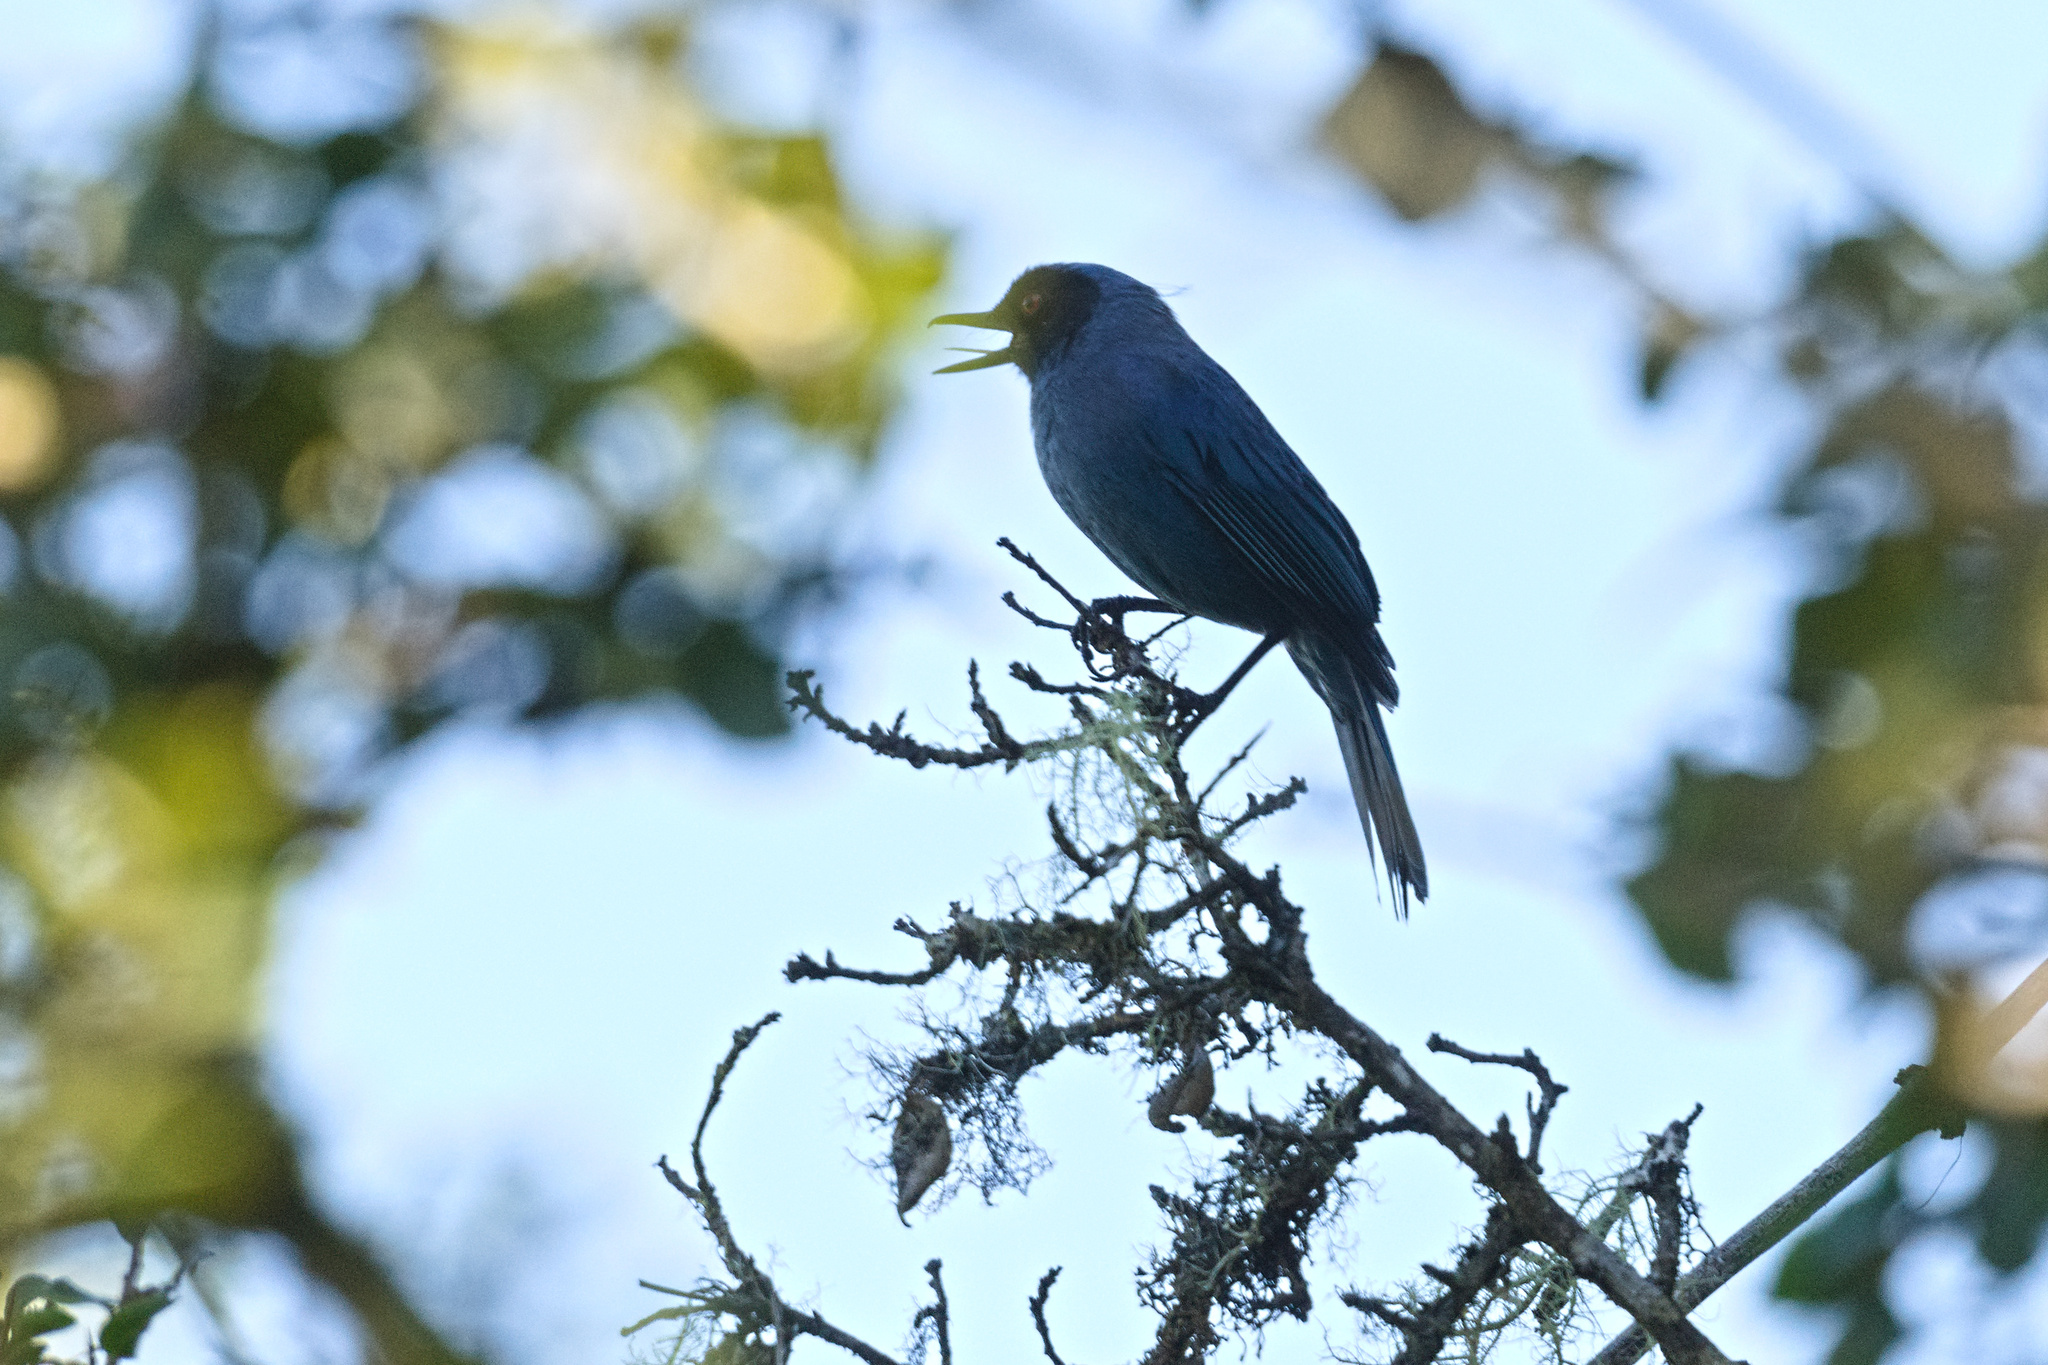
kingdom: Animalia
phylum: Chordata
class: Aves
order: Passeriformes
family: Thraupidae
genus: Diglossa
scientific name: Diglossa cyanea
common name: Masked flowerpiercer
